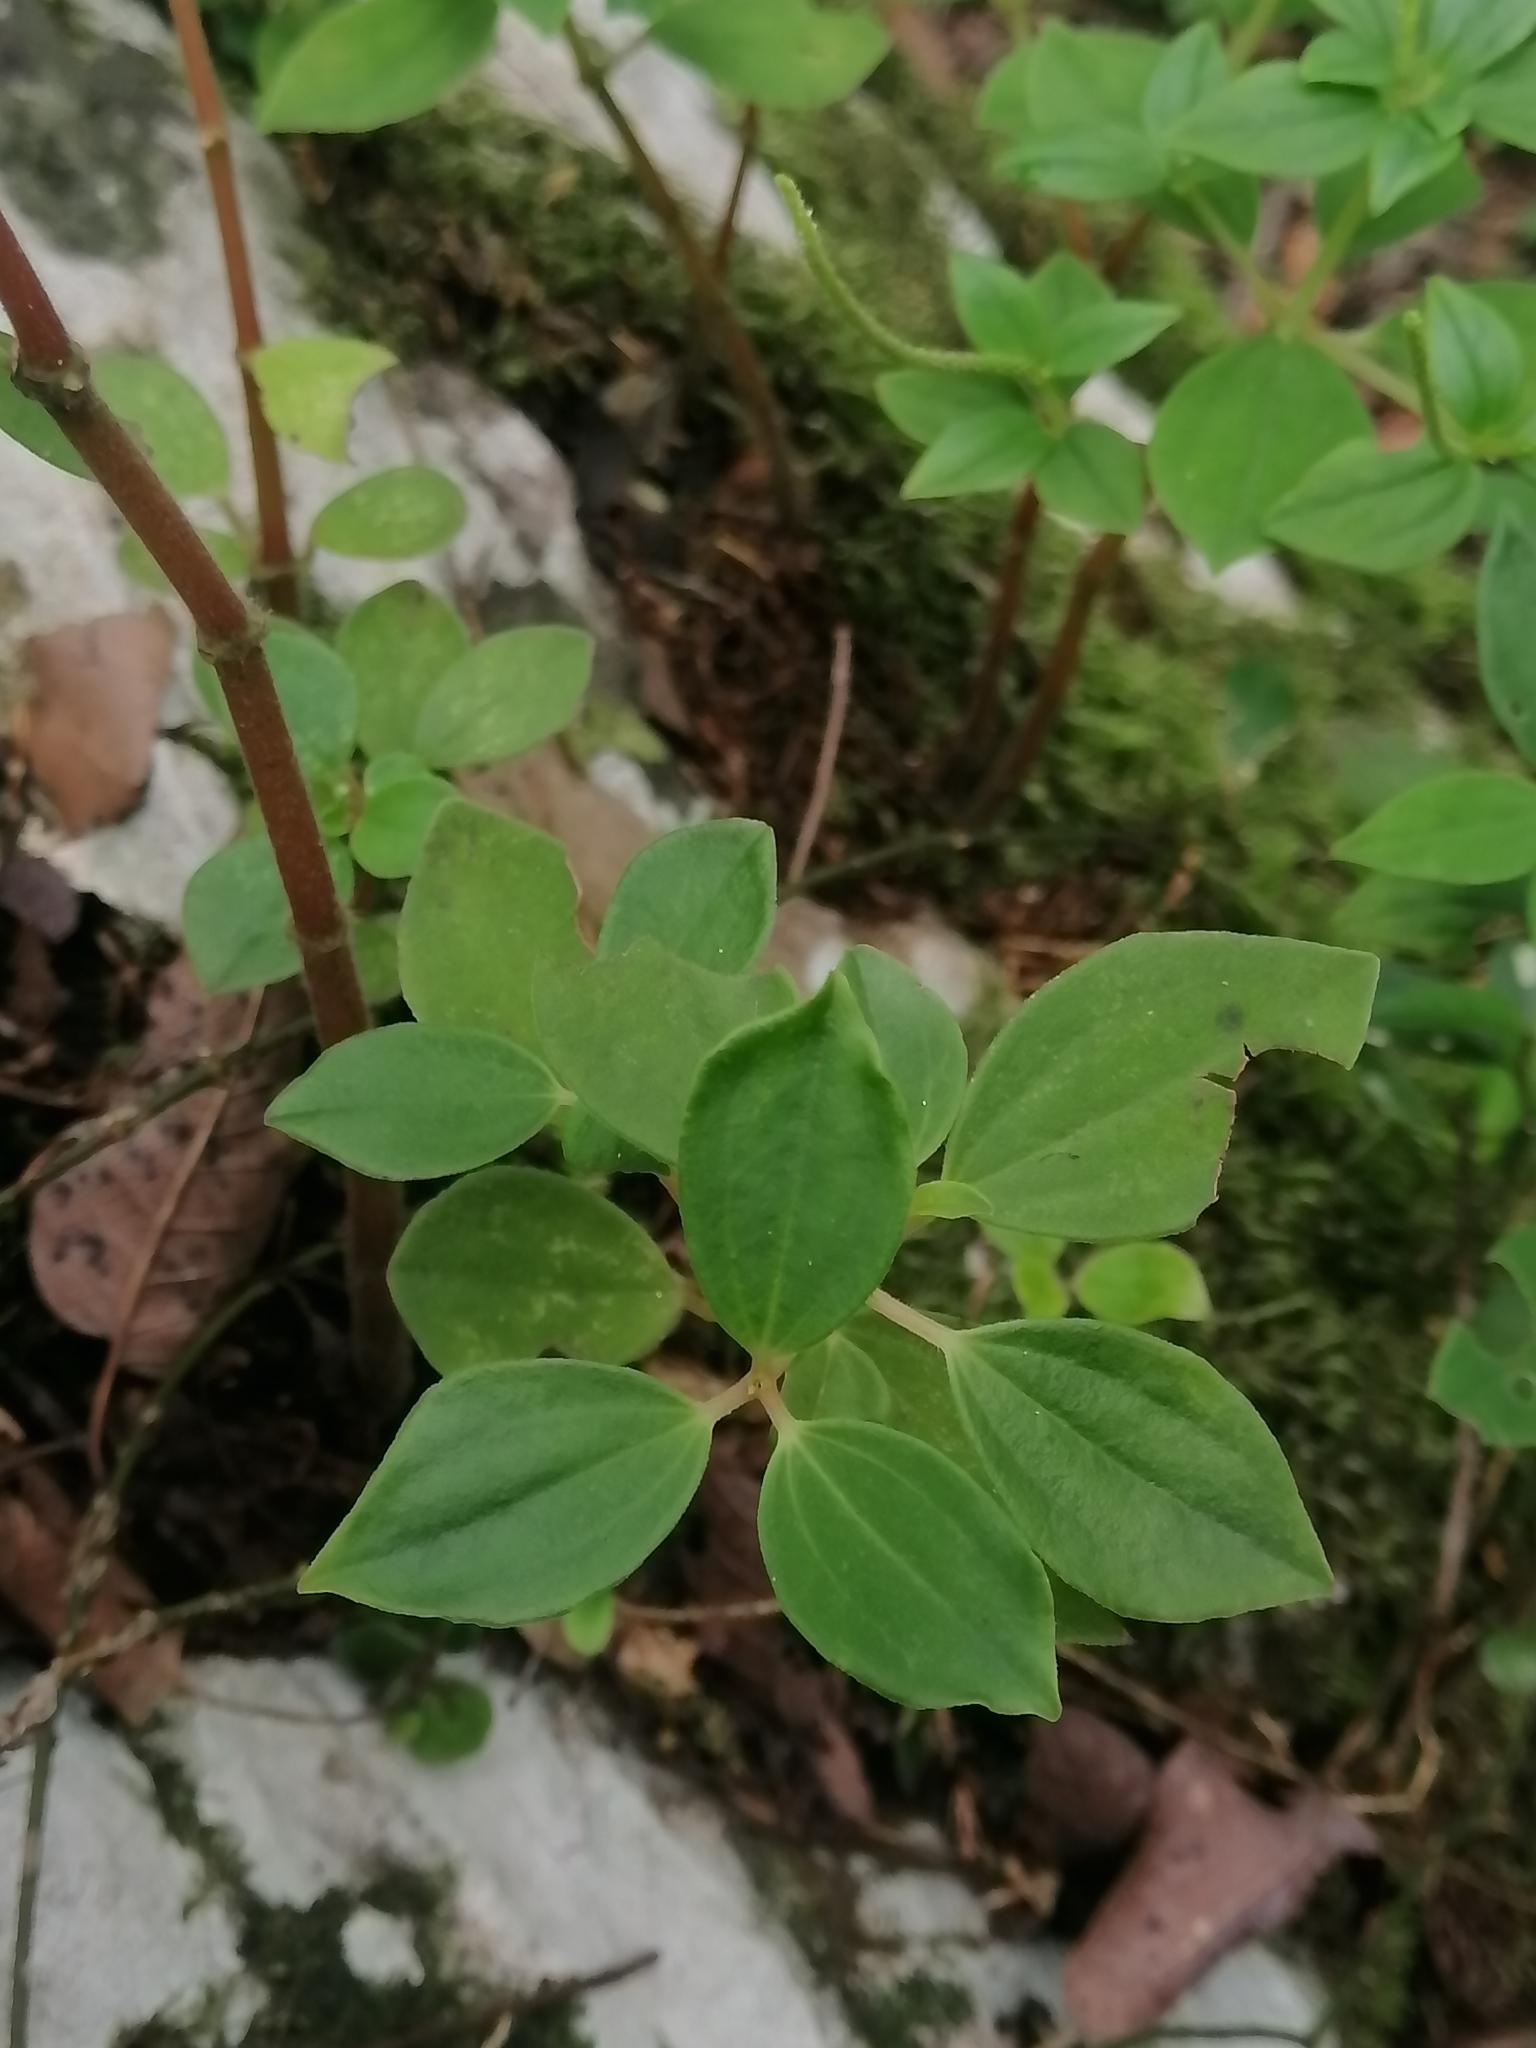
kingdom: Plantae
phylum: Tracheophyta
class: Magnoliopsida
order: Piperales
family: Piperaceae
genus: Peperomia
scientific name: Peperomia liebmannii
